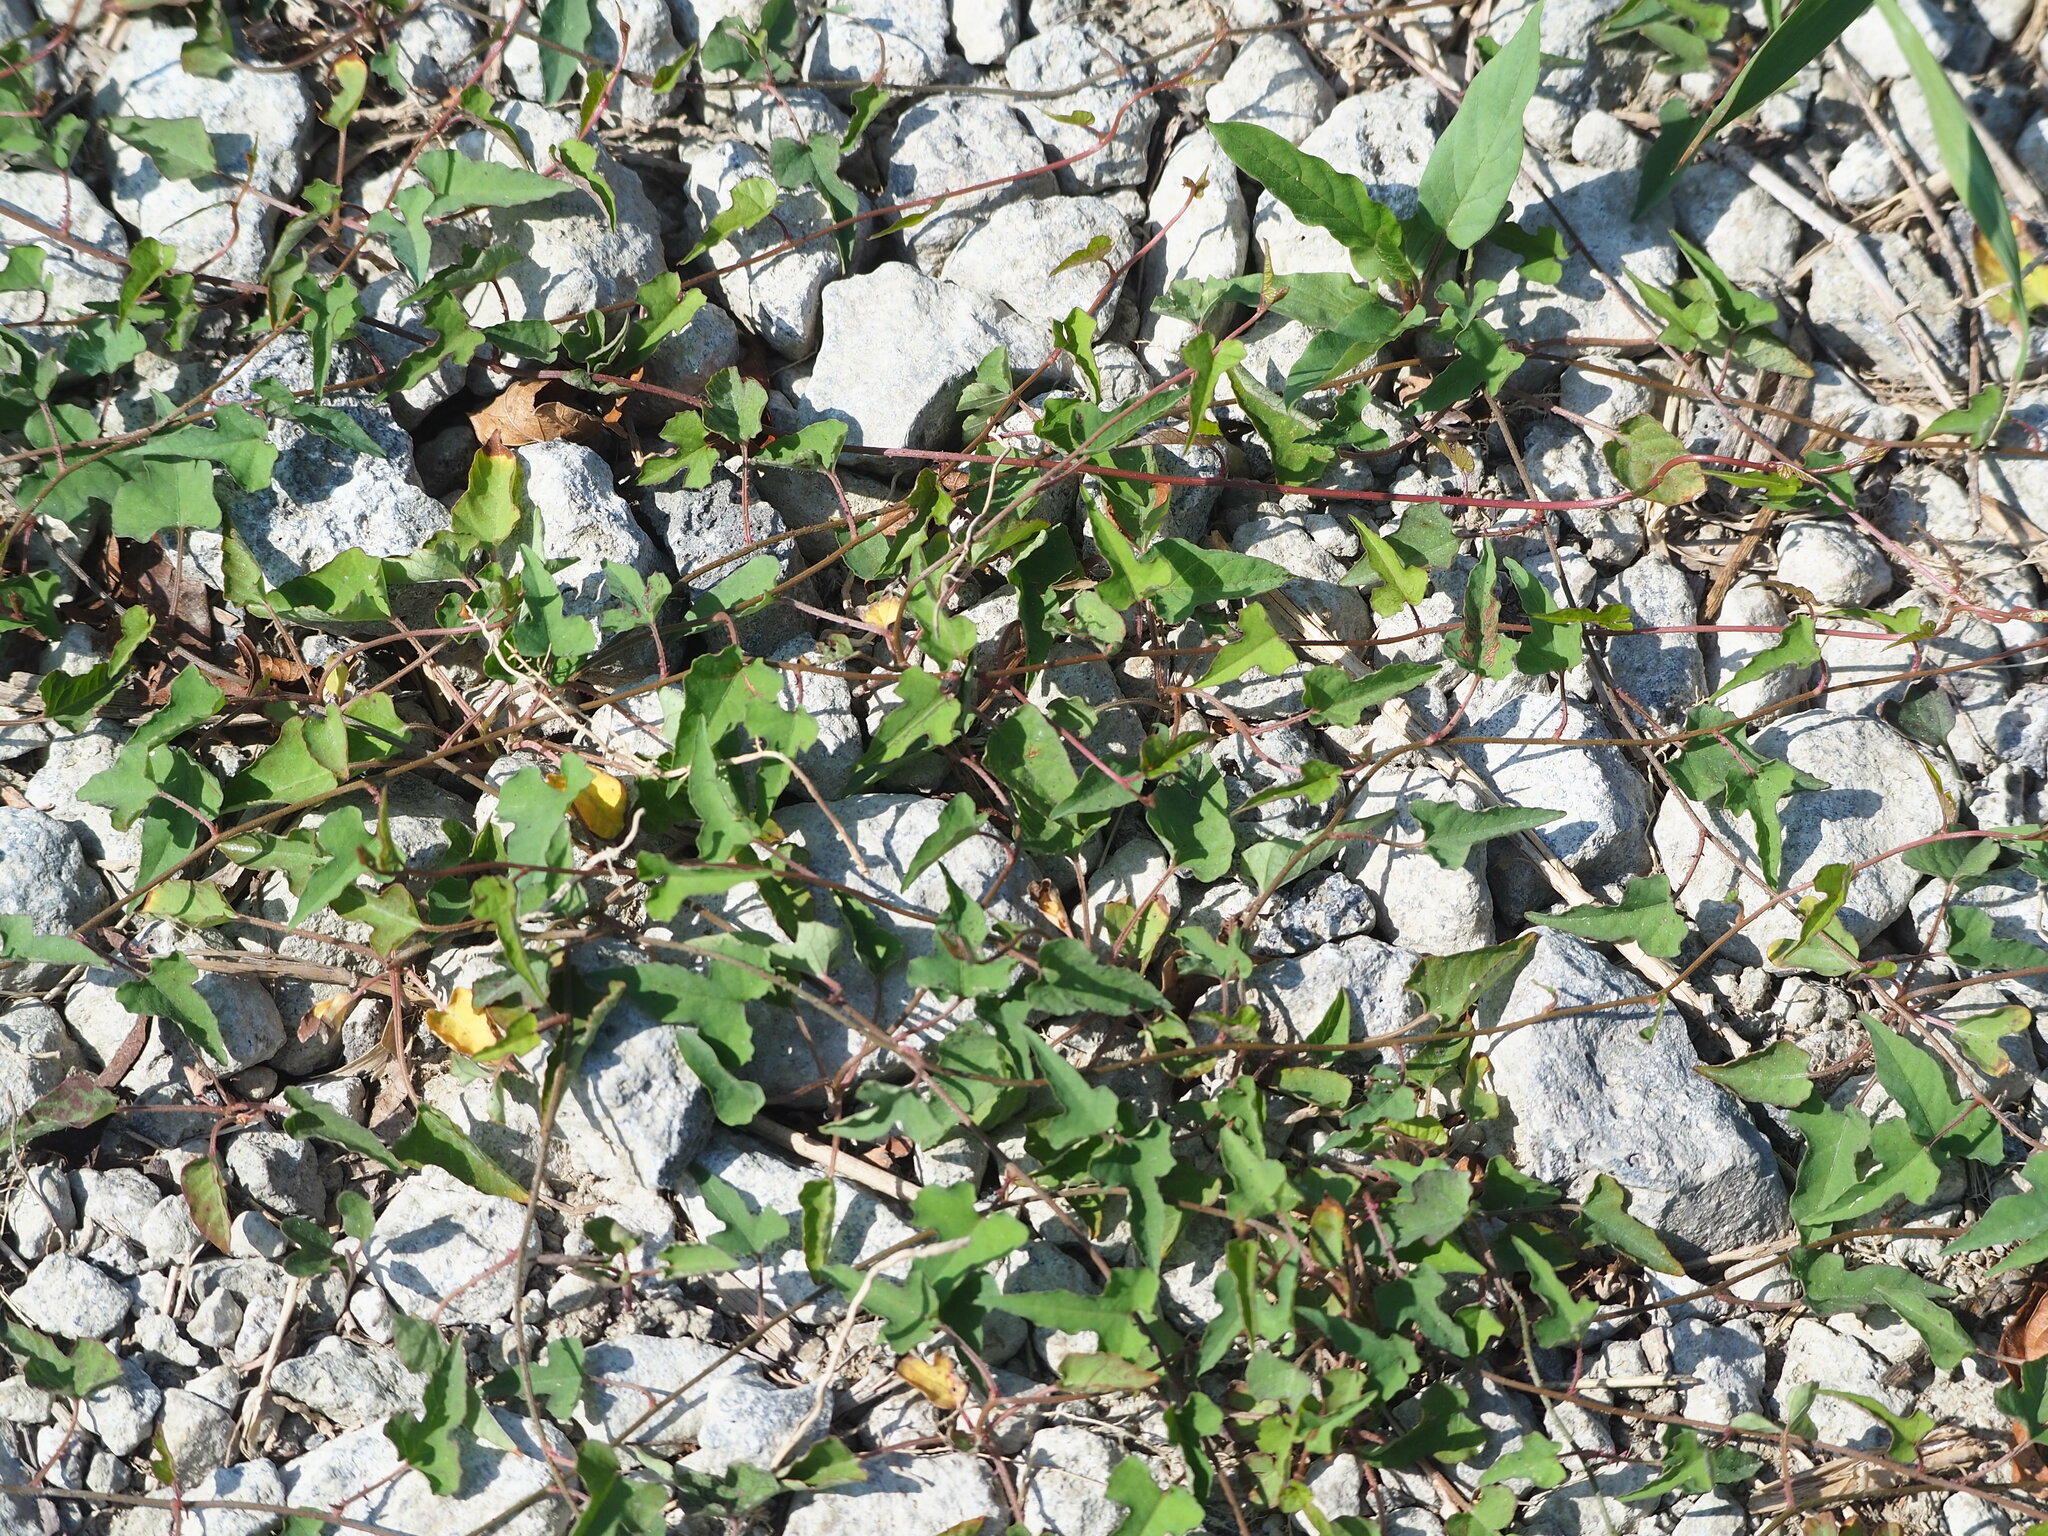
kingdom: Plantae
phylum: Tracheophyta
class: Magnoliopsida
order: Solanales
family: Convolvulaceae
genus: Merremia
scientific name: Merremia hederacea
